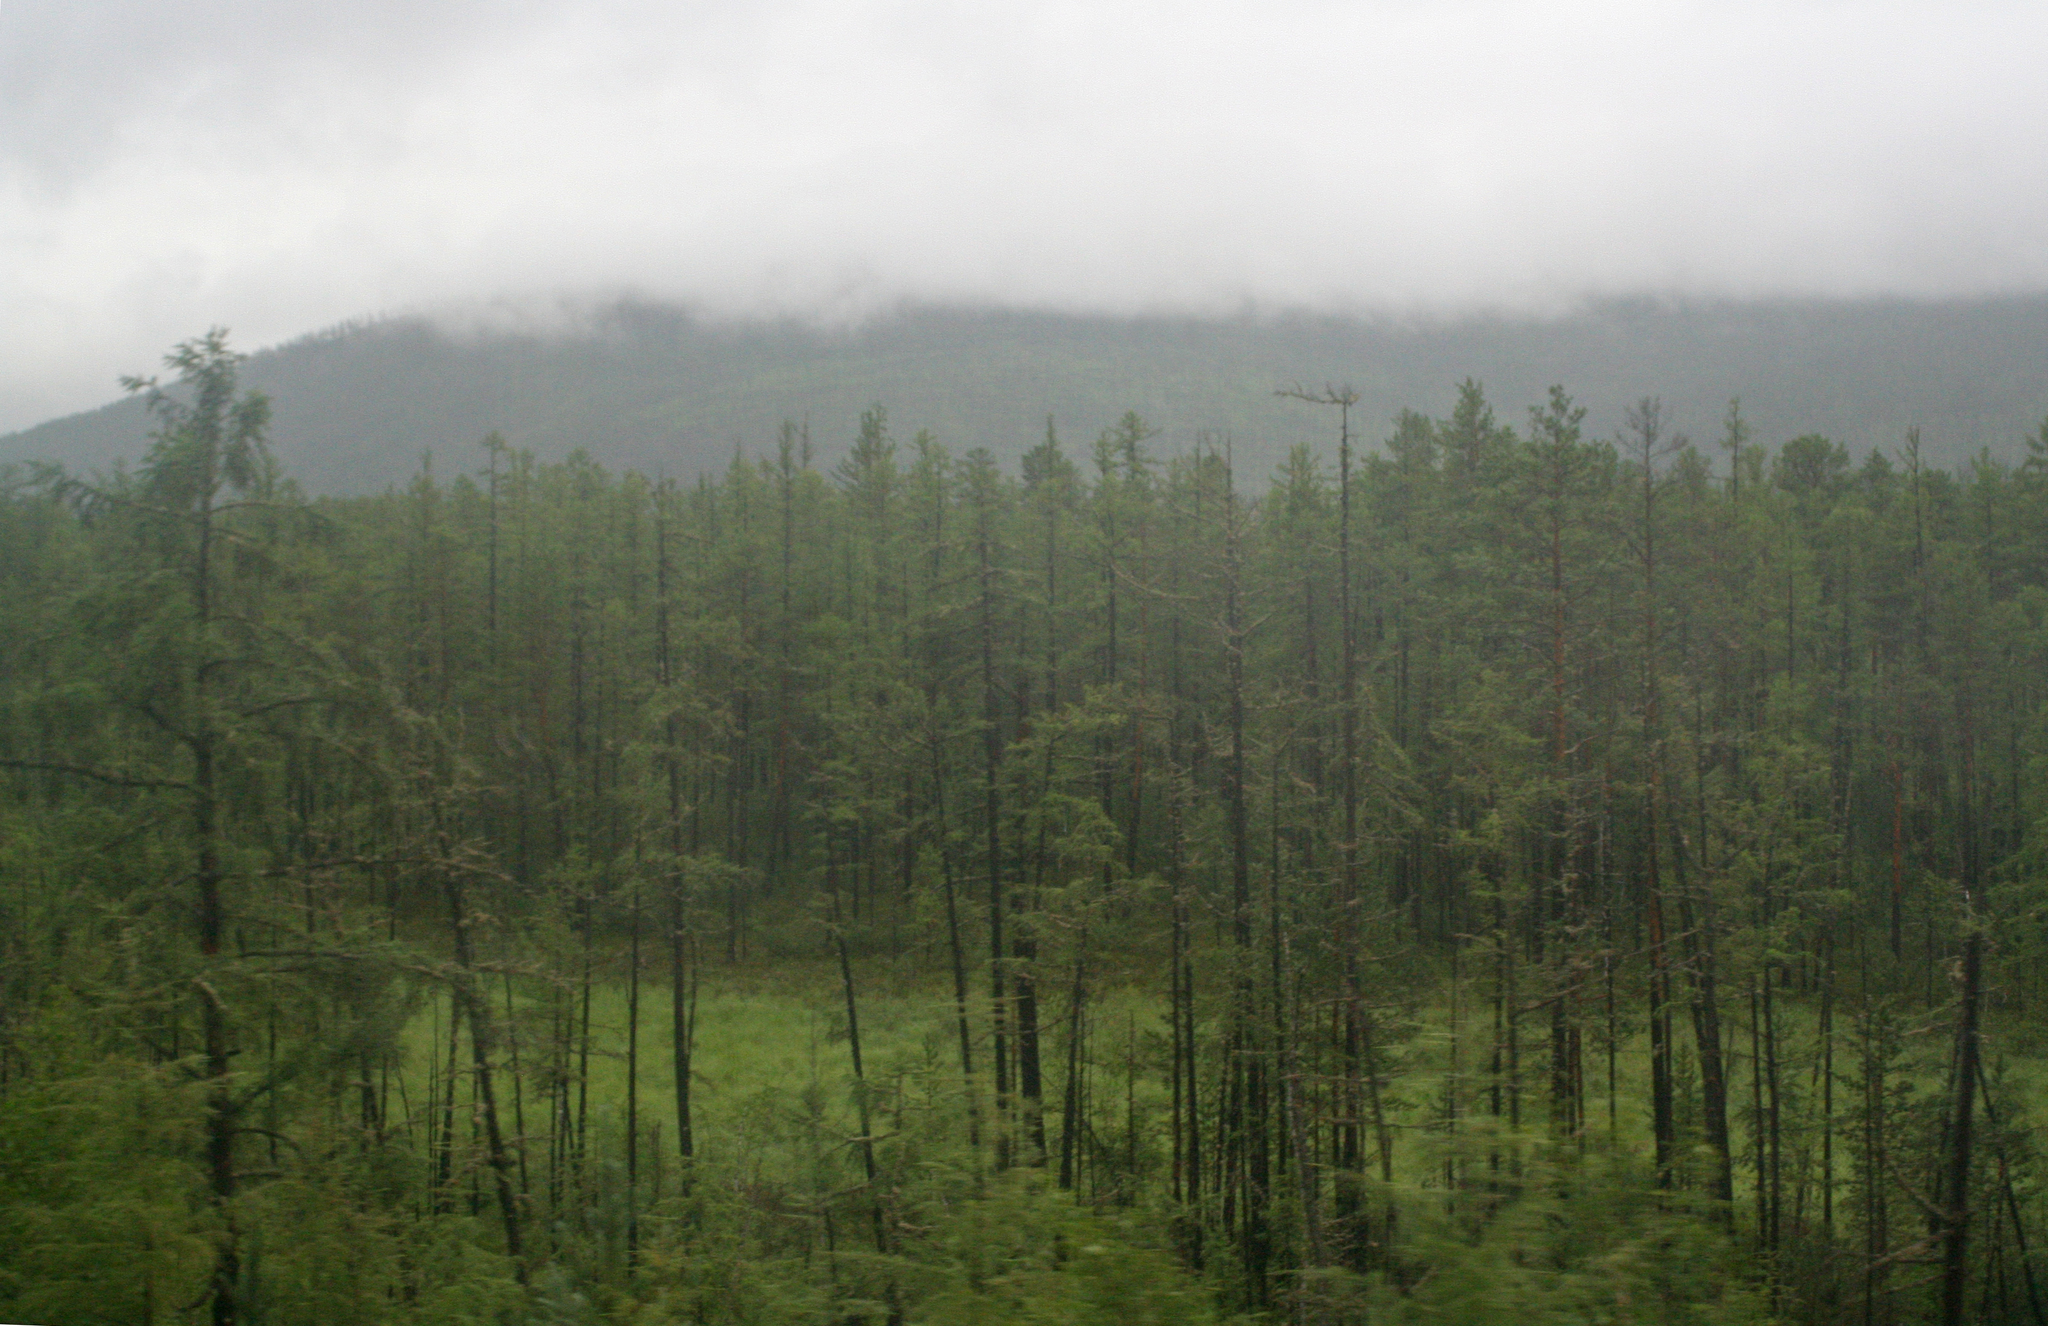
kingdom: Plantae
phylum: Tracheophyta
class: Pinopsida
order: Pinales
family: Pinaceae
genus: Larix
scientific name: Larix gmelinii
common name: Dahurian larch
